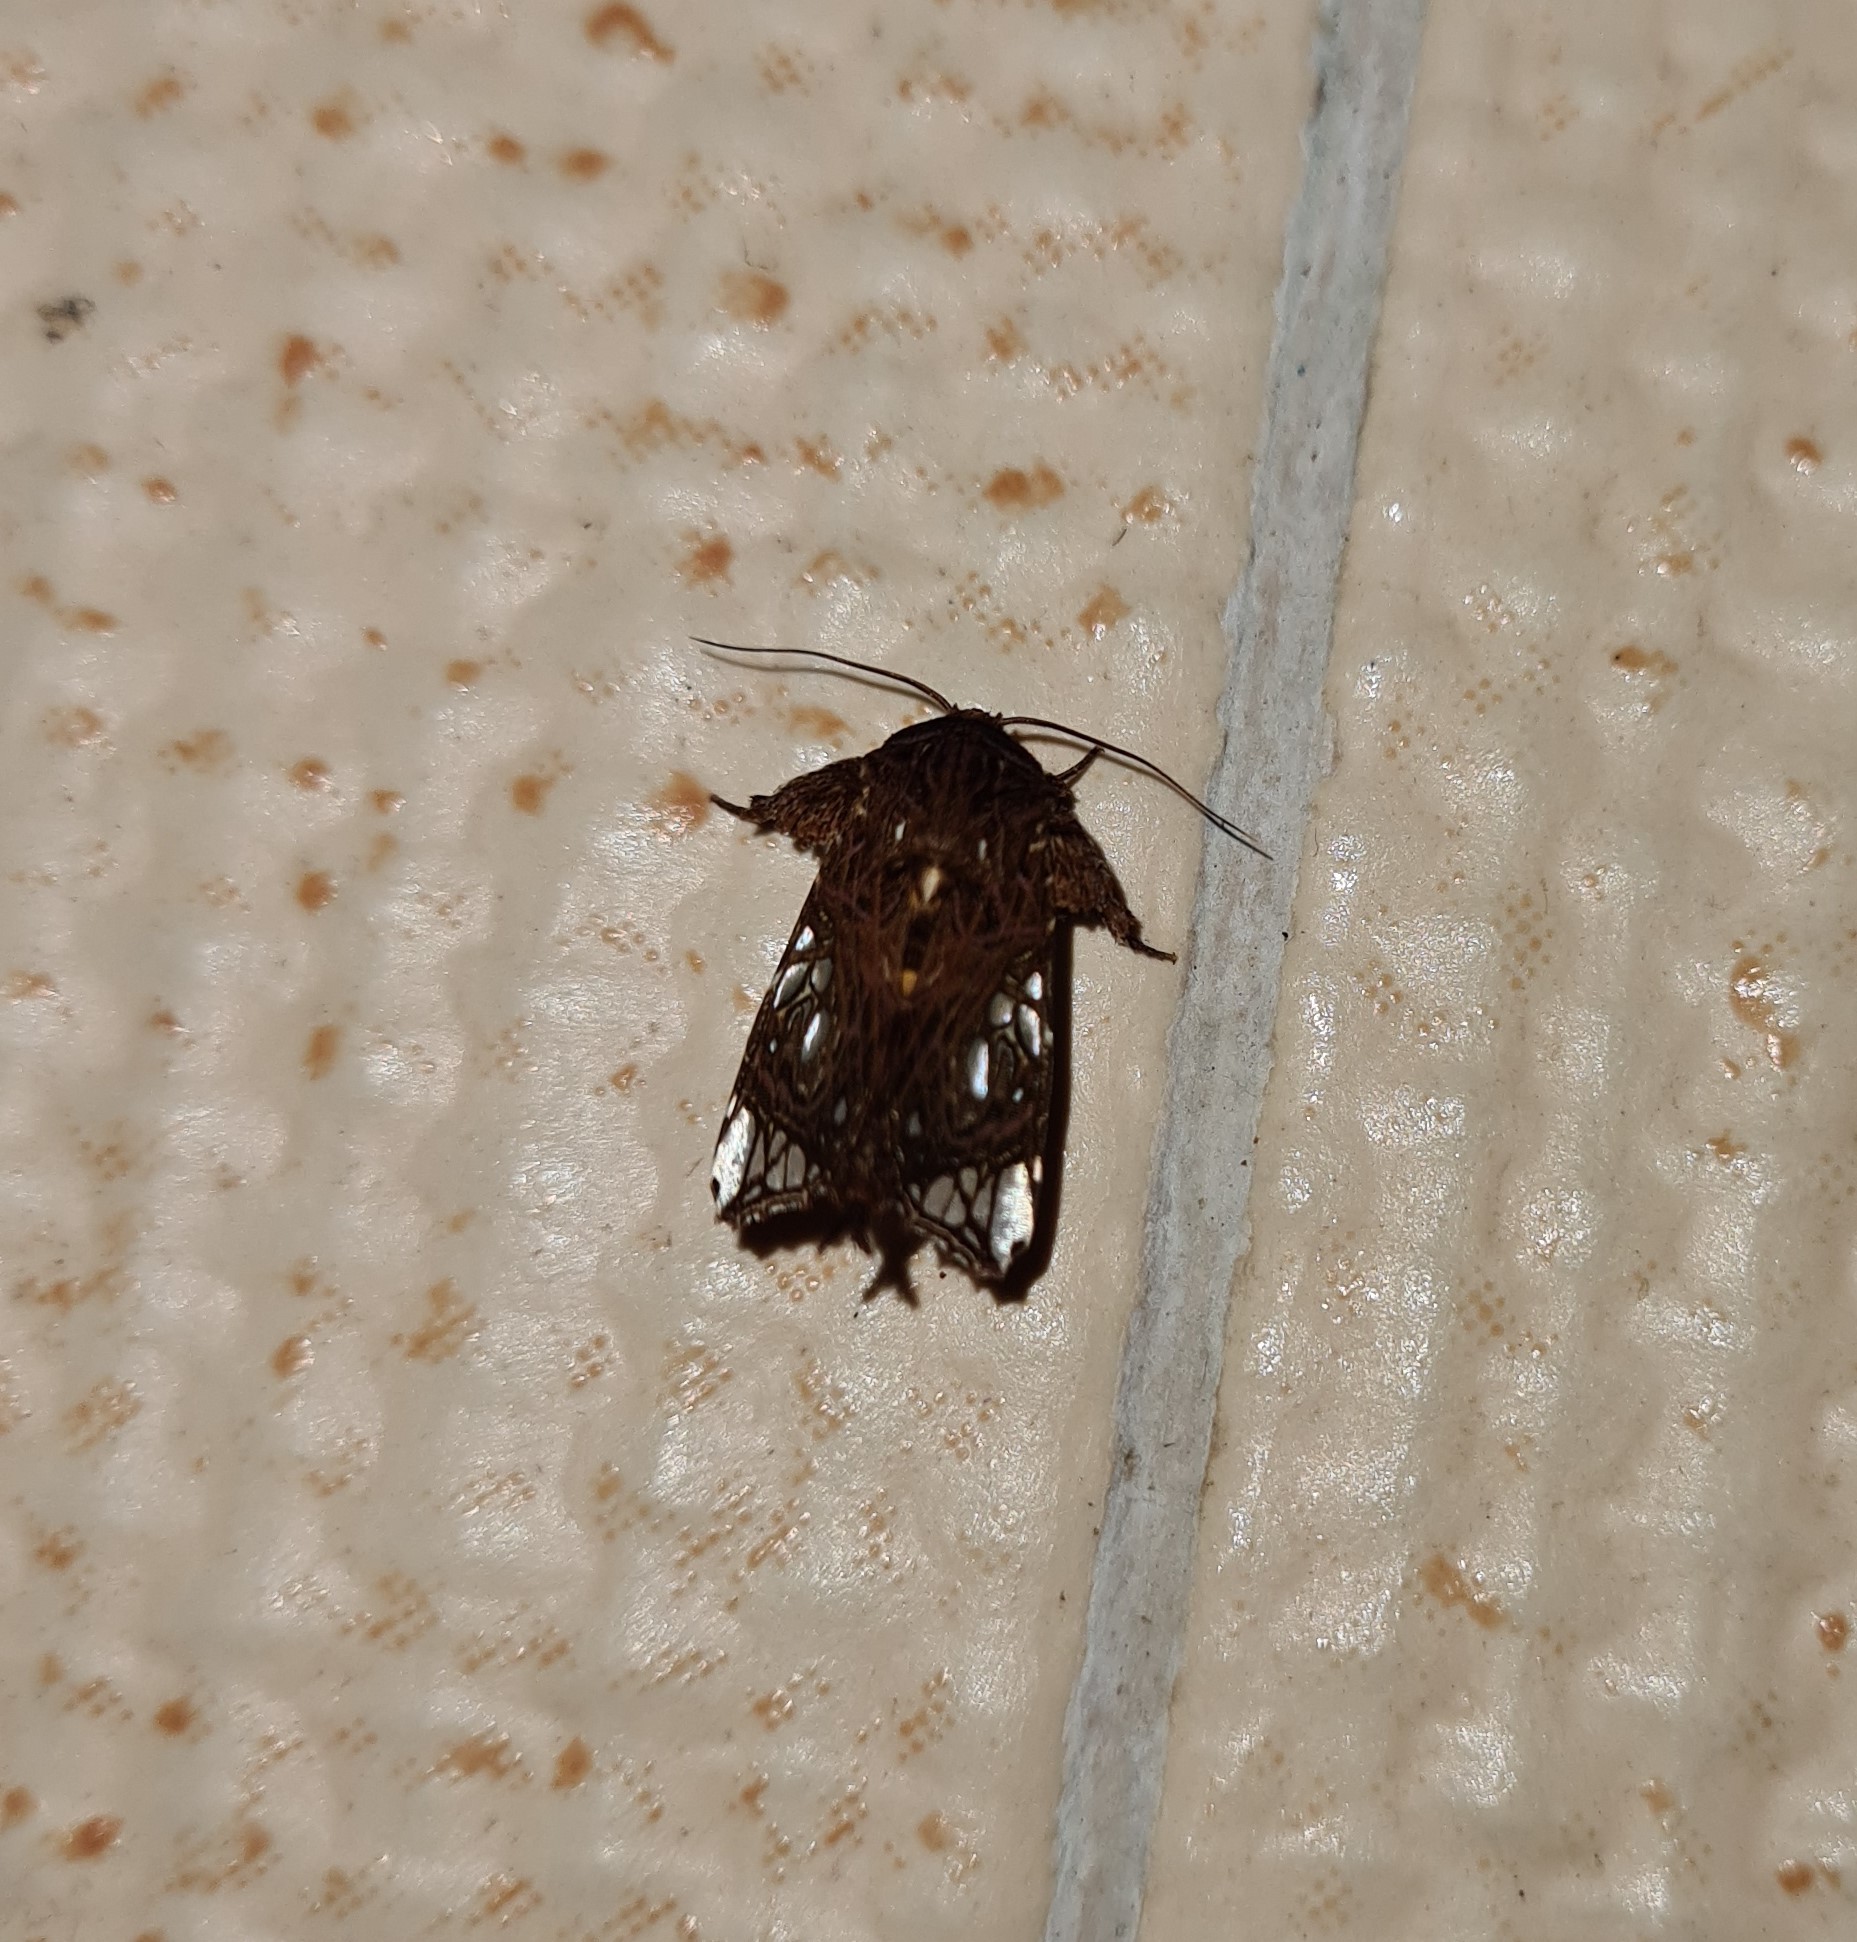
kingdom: Animalia
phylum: Arthropoda
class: Insecta
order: Lepidoptera
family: Noctuidae
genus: Argyrosticta
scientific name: Argyrosticta ditissima
